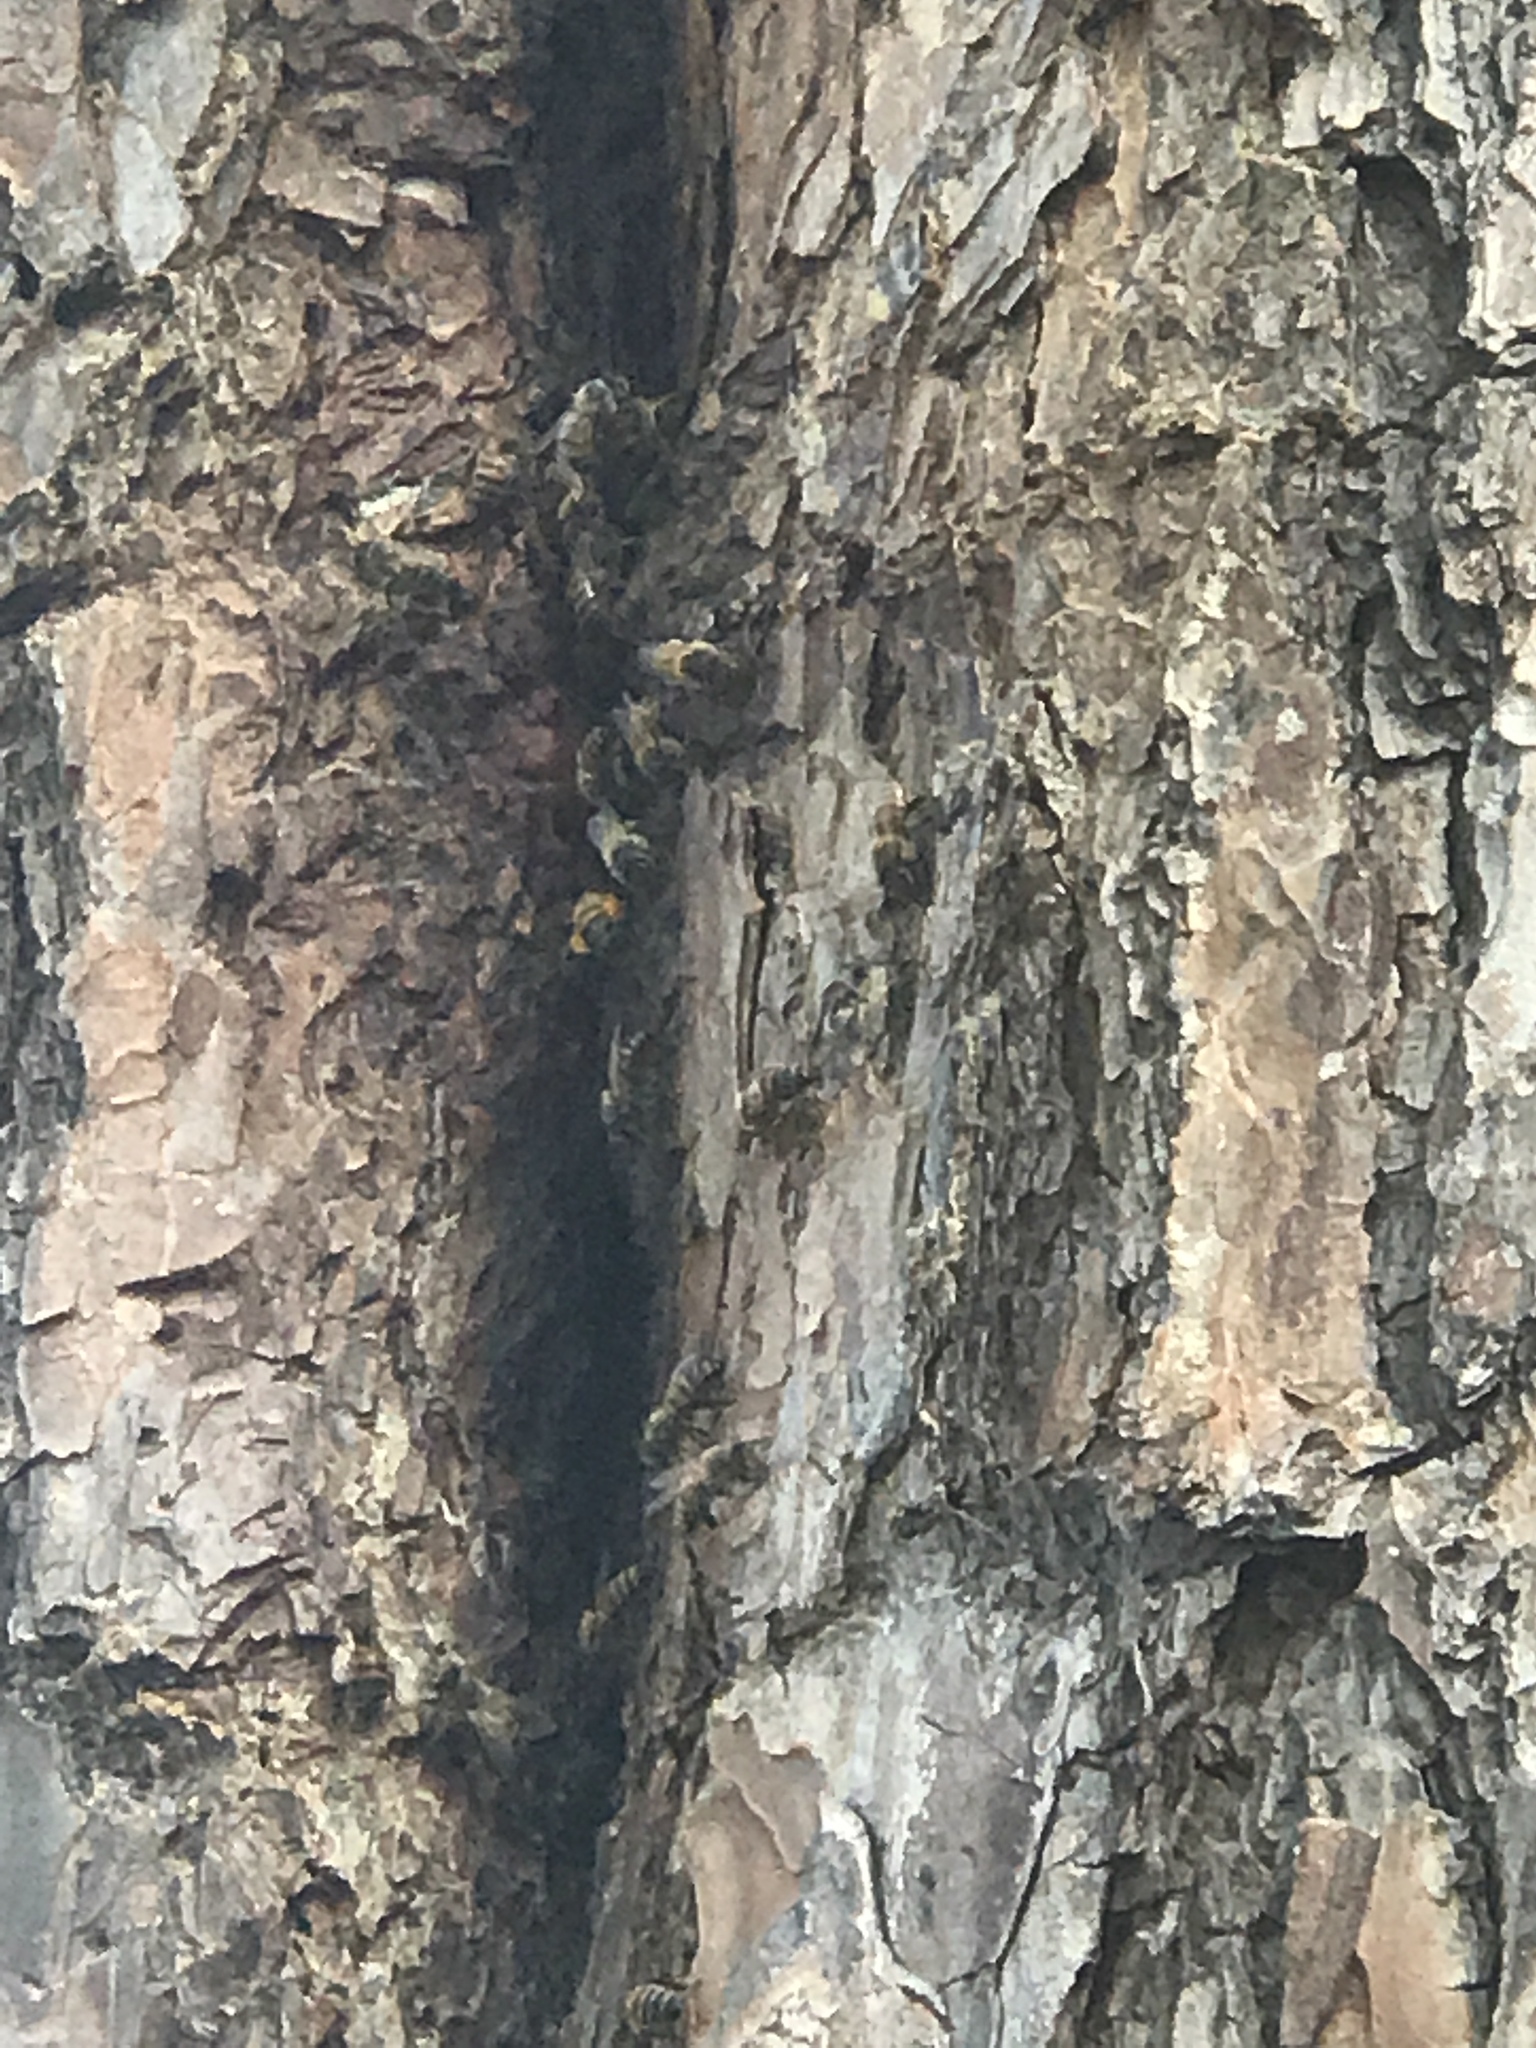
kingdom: Animalia
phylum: Arthropoda
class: Insecta
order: Hymenoptera
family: Apidae
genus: Apis
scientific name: Apis mellifera
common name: Honey bee
